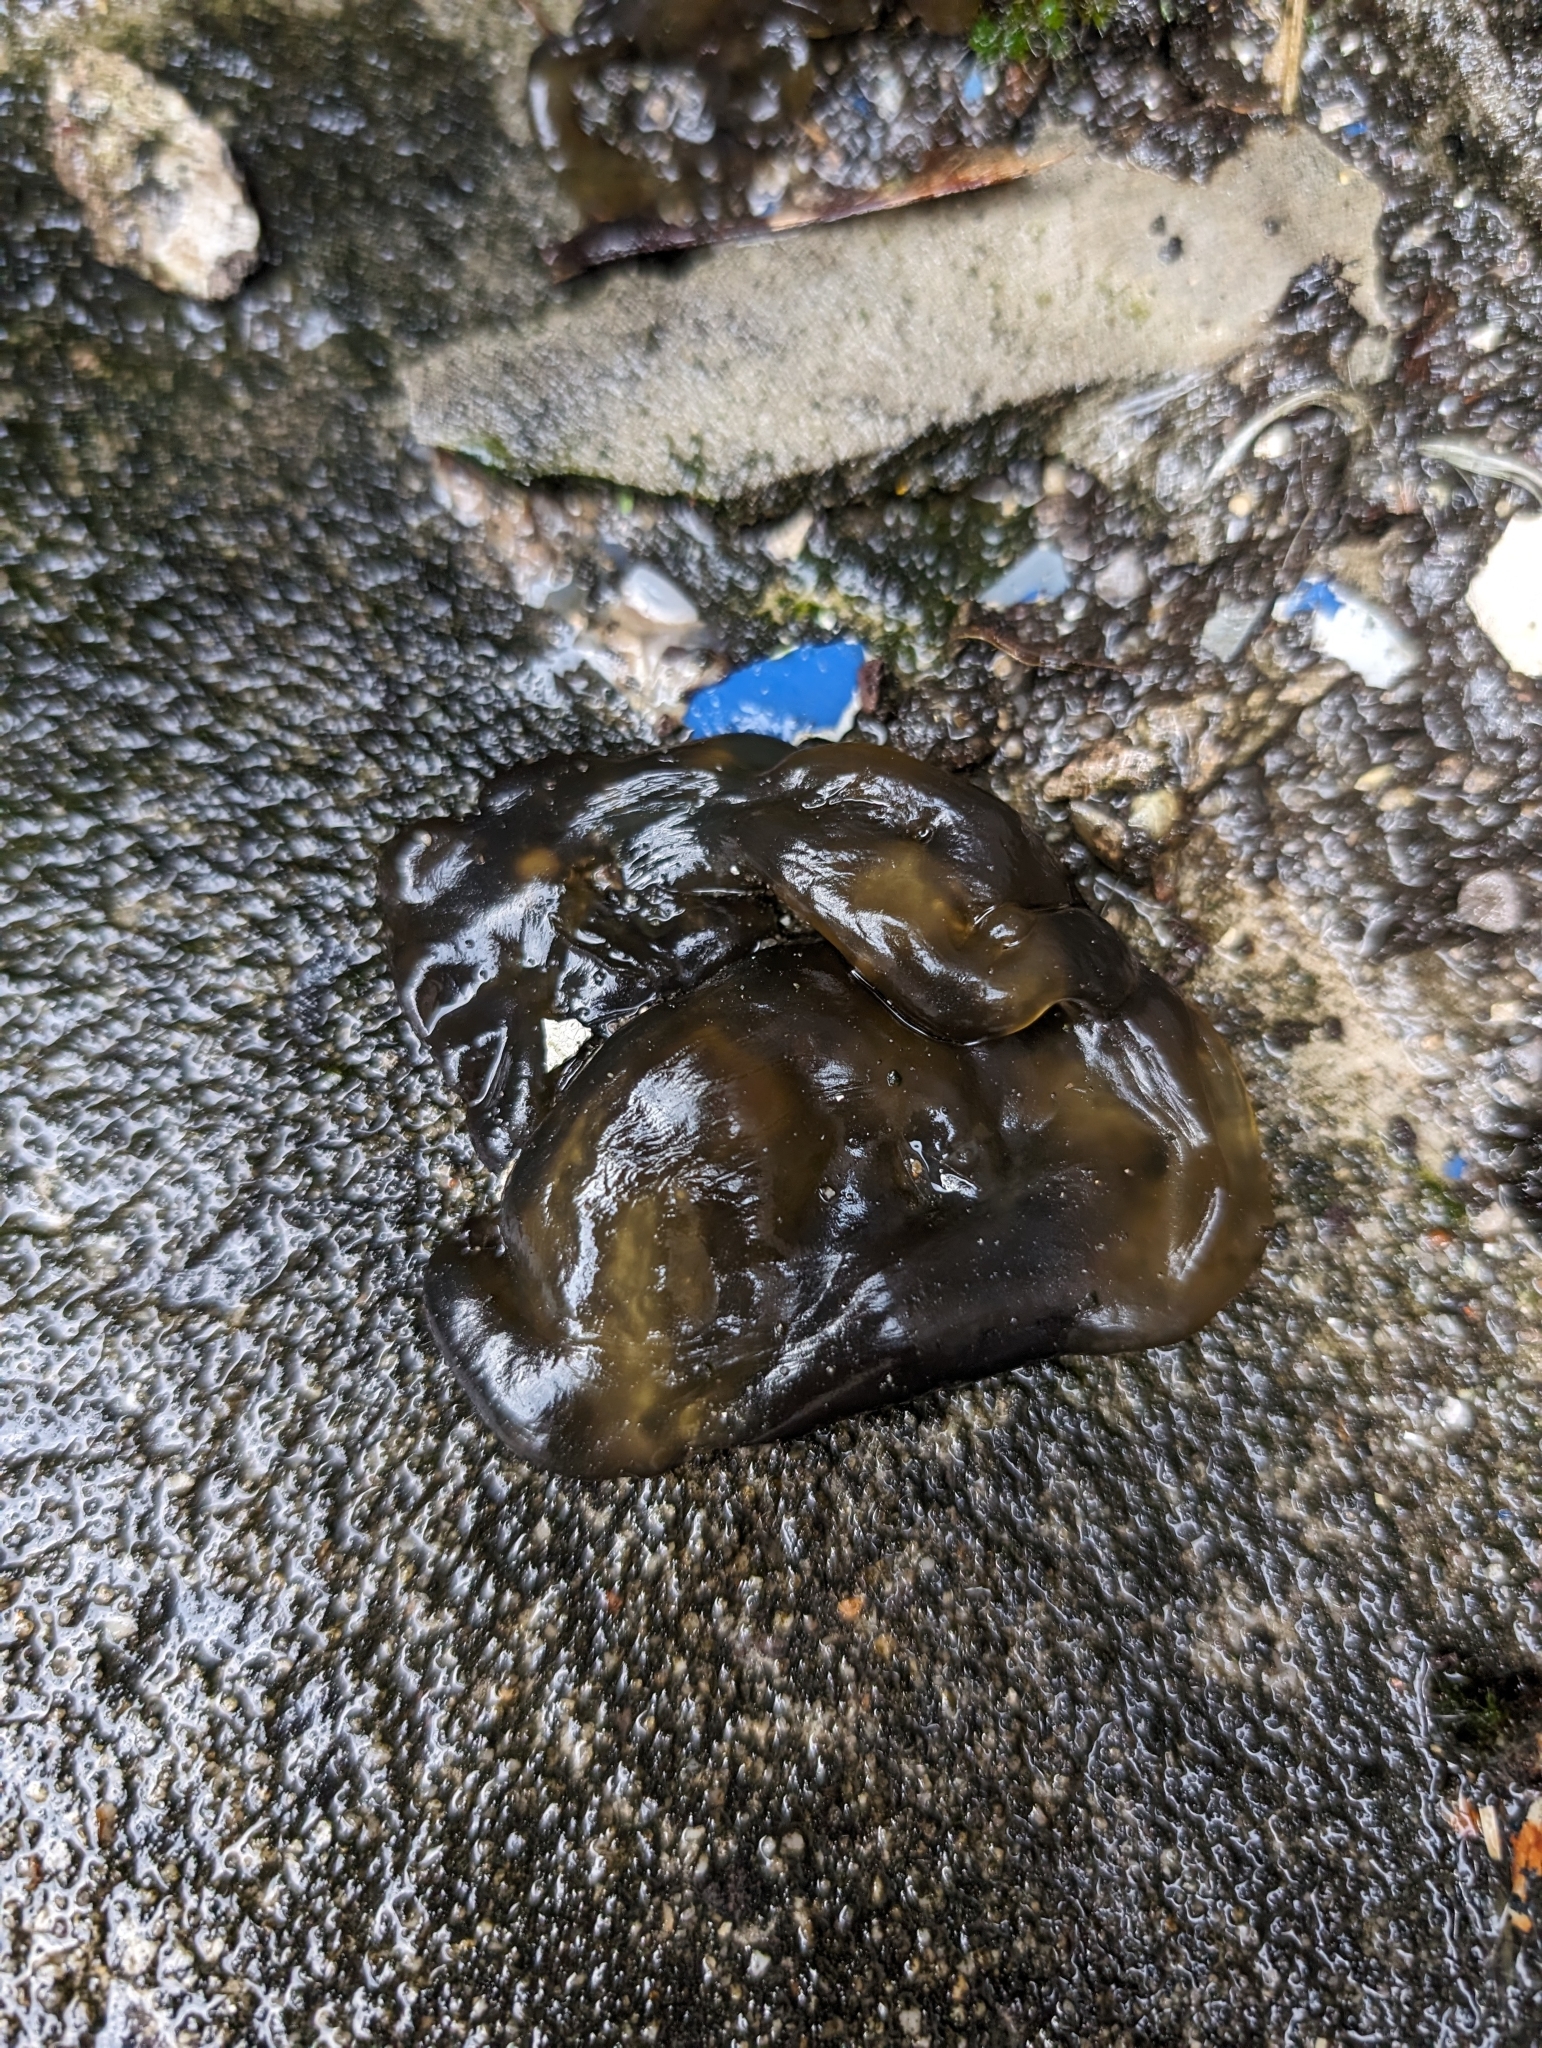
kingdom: Bacteria
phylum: Cyanobacteria
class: Cyanobacteriia
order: Cyanobacteriales
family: Nostocaceae
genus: Nostoc
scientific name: Nostoc commune
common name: Star jelly
